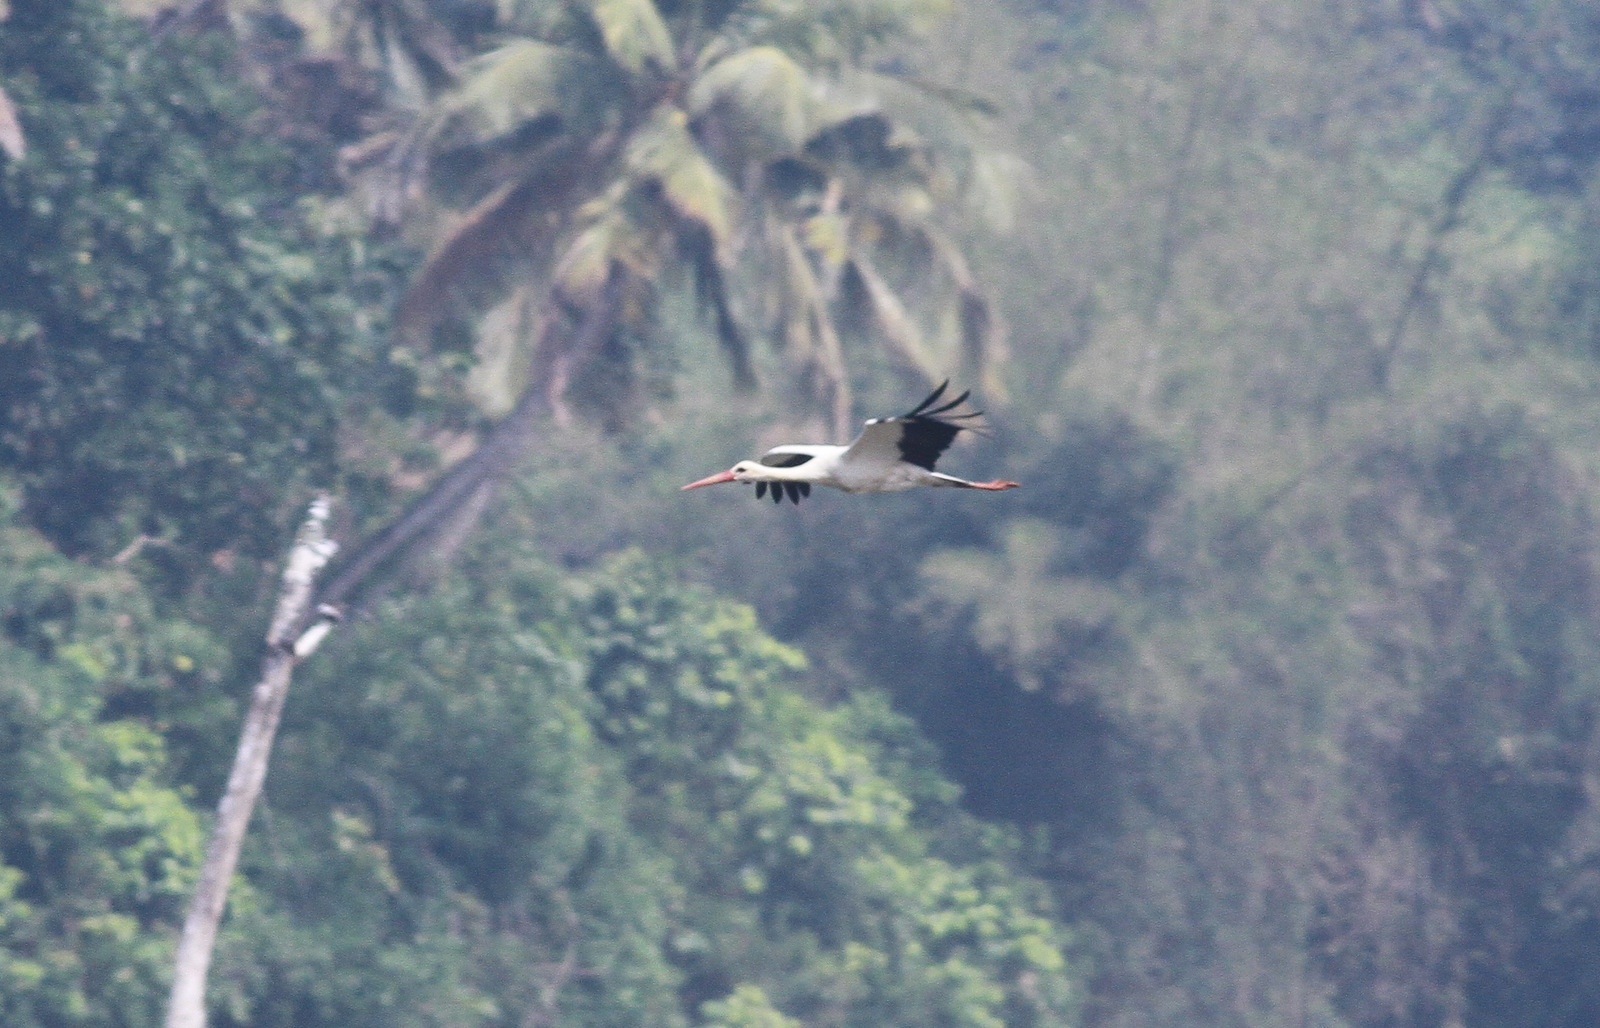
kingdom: Animalia
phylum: Chordata
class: Aves
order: Ciconiiformes
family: Ciconiidae
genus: Ciconia
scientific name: Ciconia ciconia
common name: White stork
